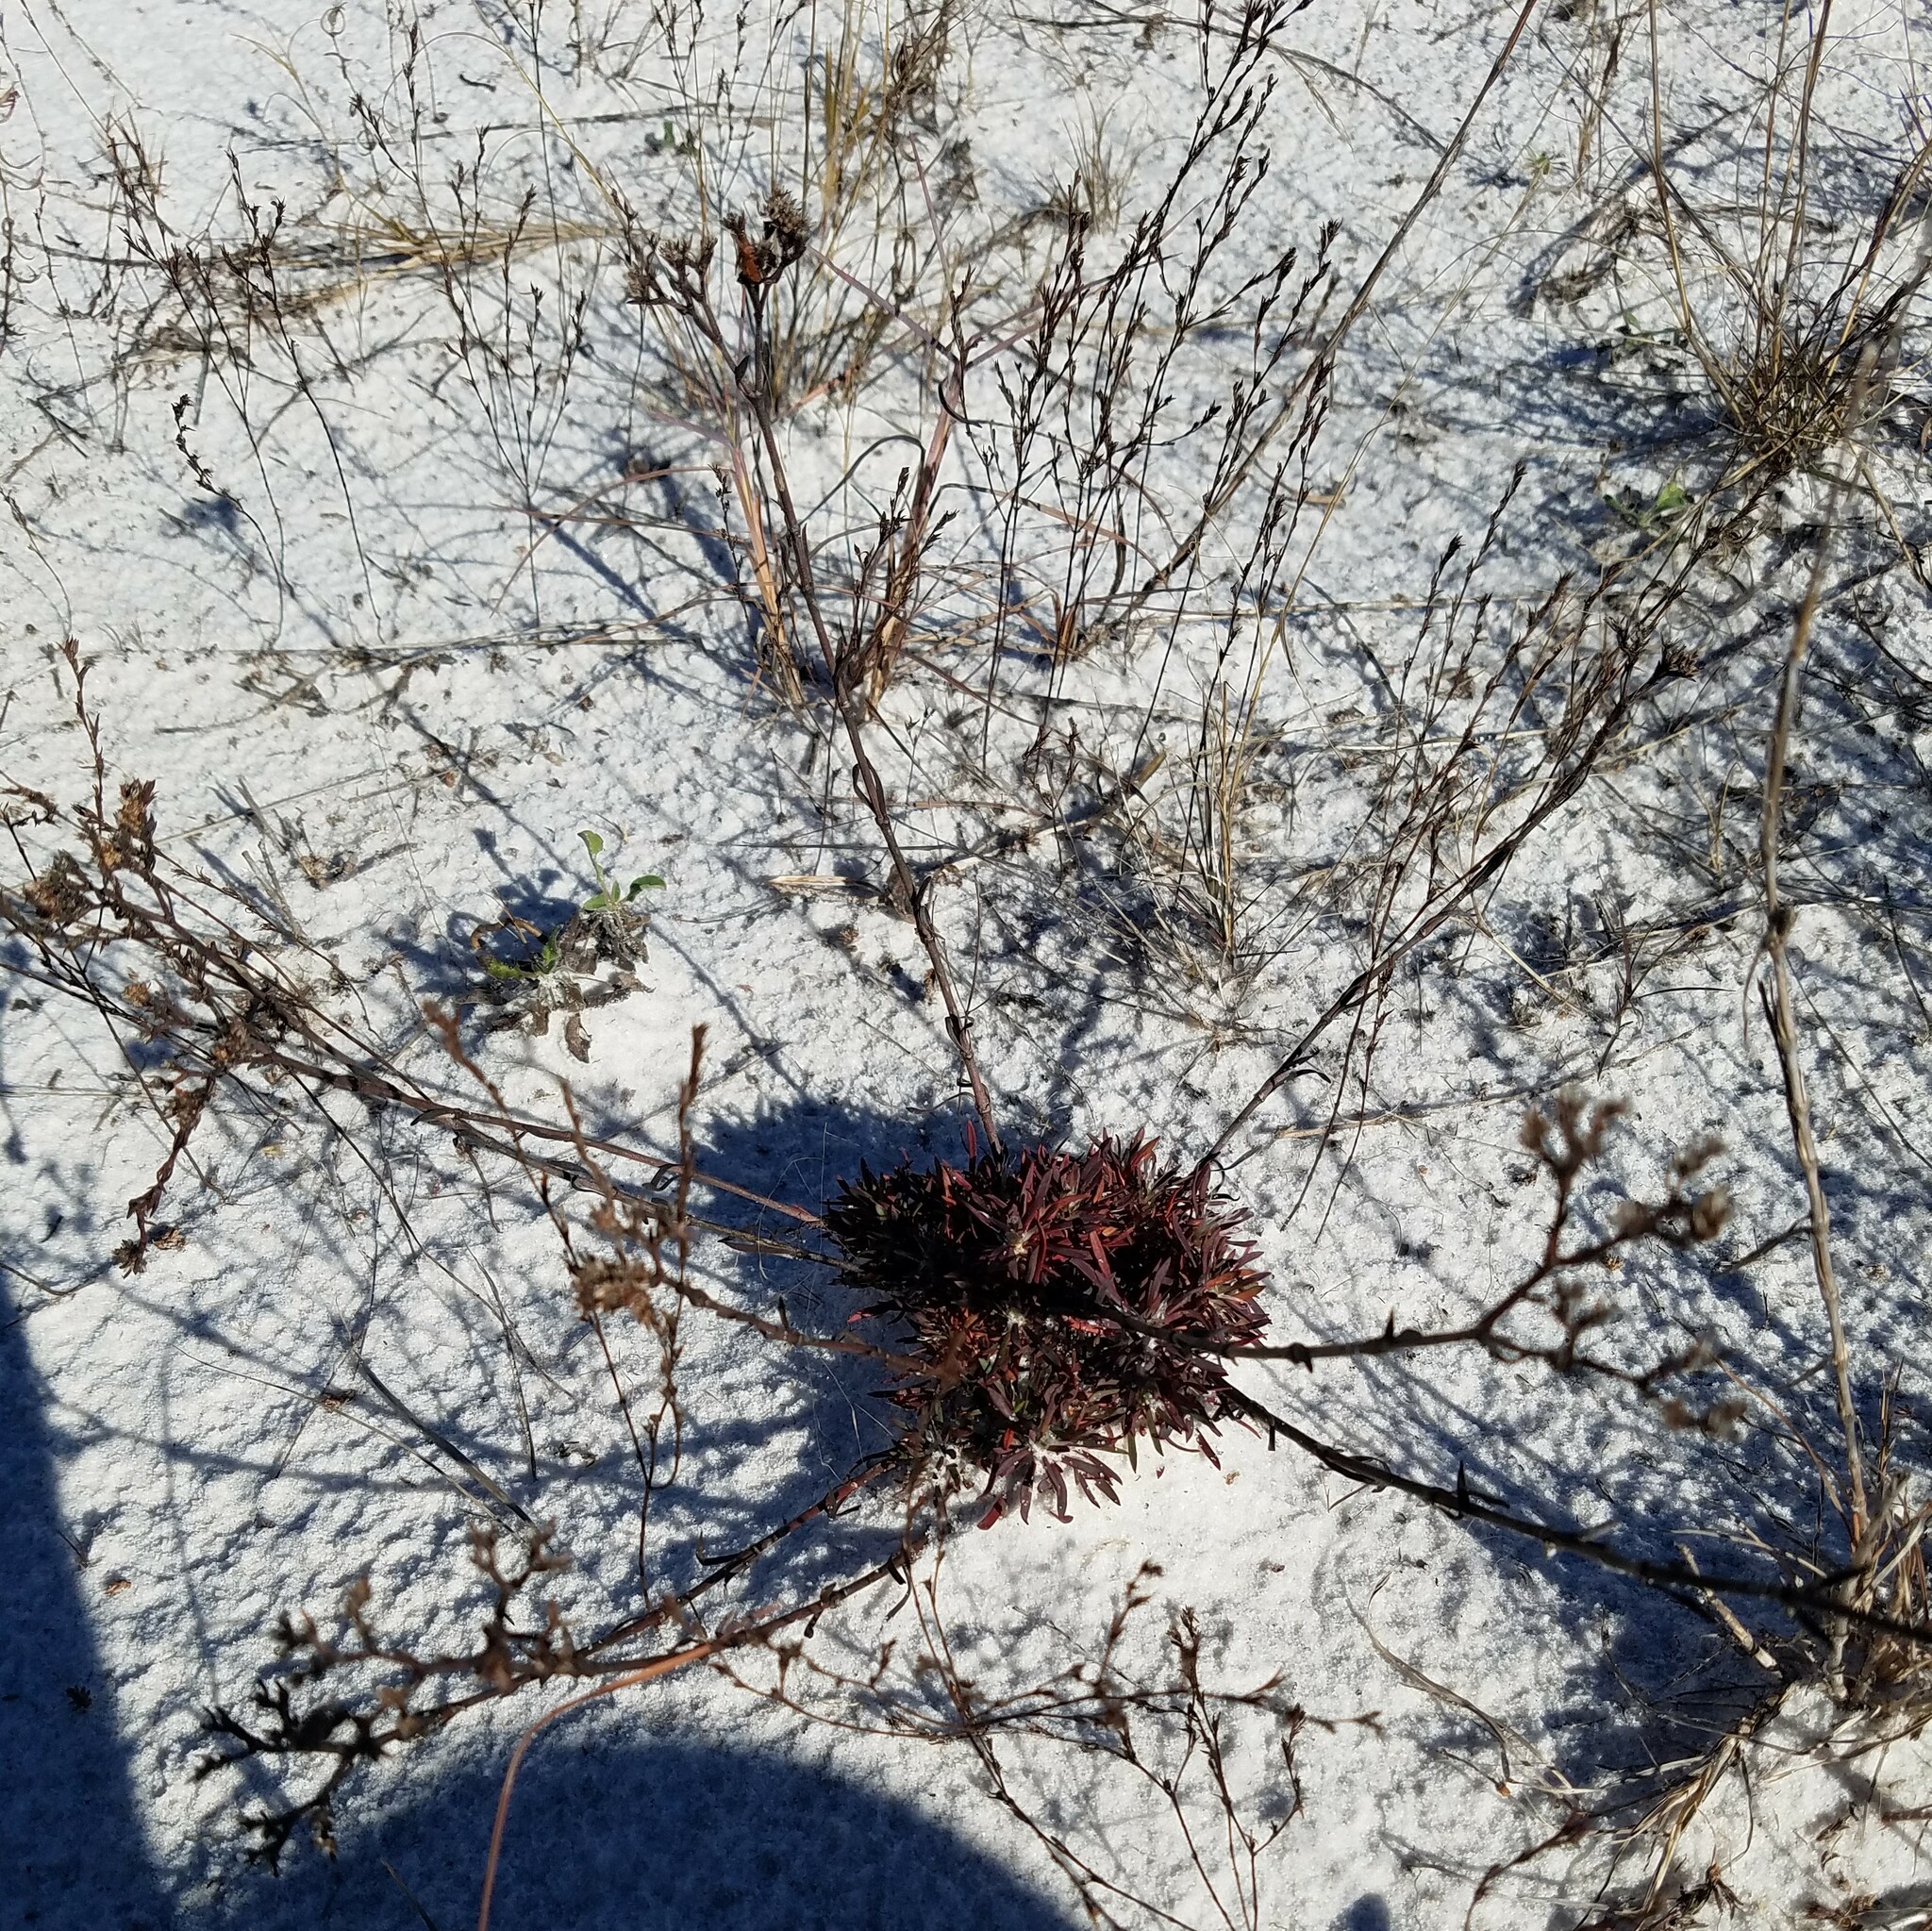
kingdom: Plantae
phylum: Tracheophyta
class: Magnoliopsida
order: Caryophyllales
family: Caryophyllaceae
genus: Paronychia
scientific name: Paronychia erecta
